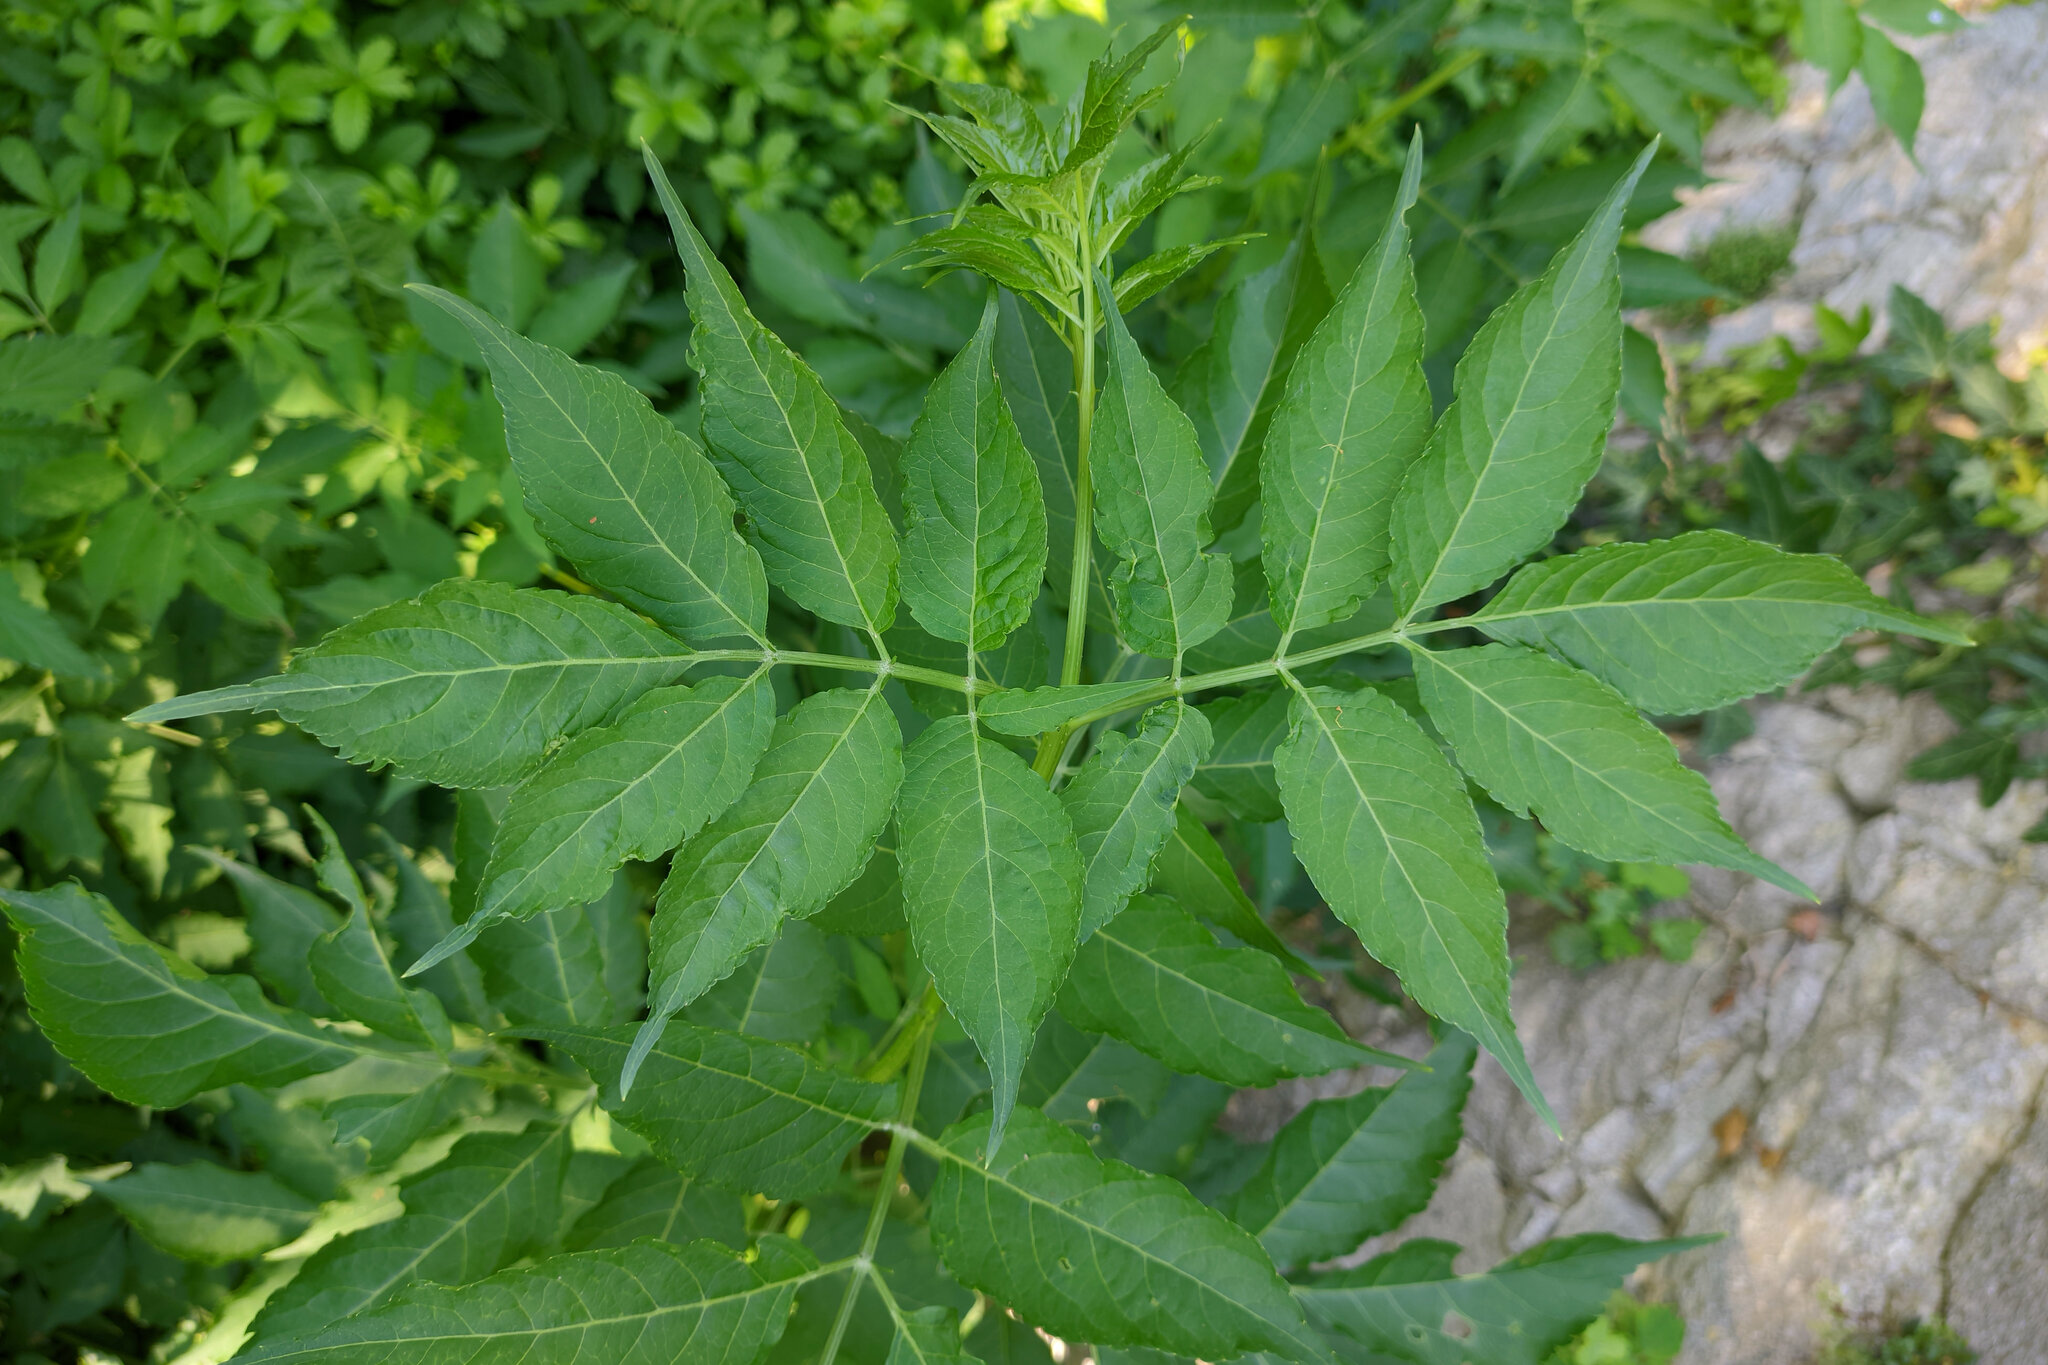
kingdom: Plantae
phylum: Tracheophyta
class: Magnoliopsida
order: Dipsacales
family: Viburnaceae
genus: Sambucus
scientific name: Sambucus nigra
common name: Elder
